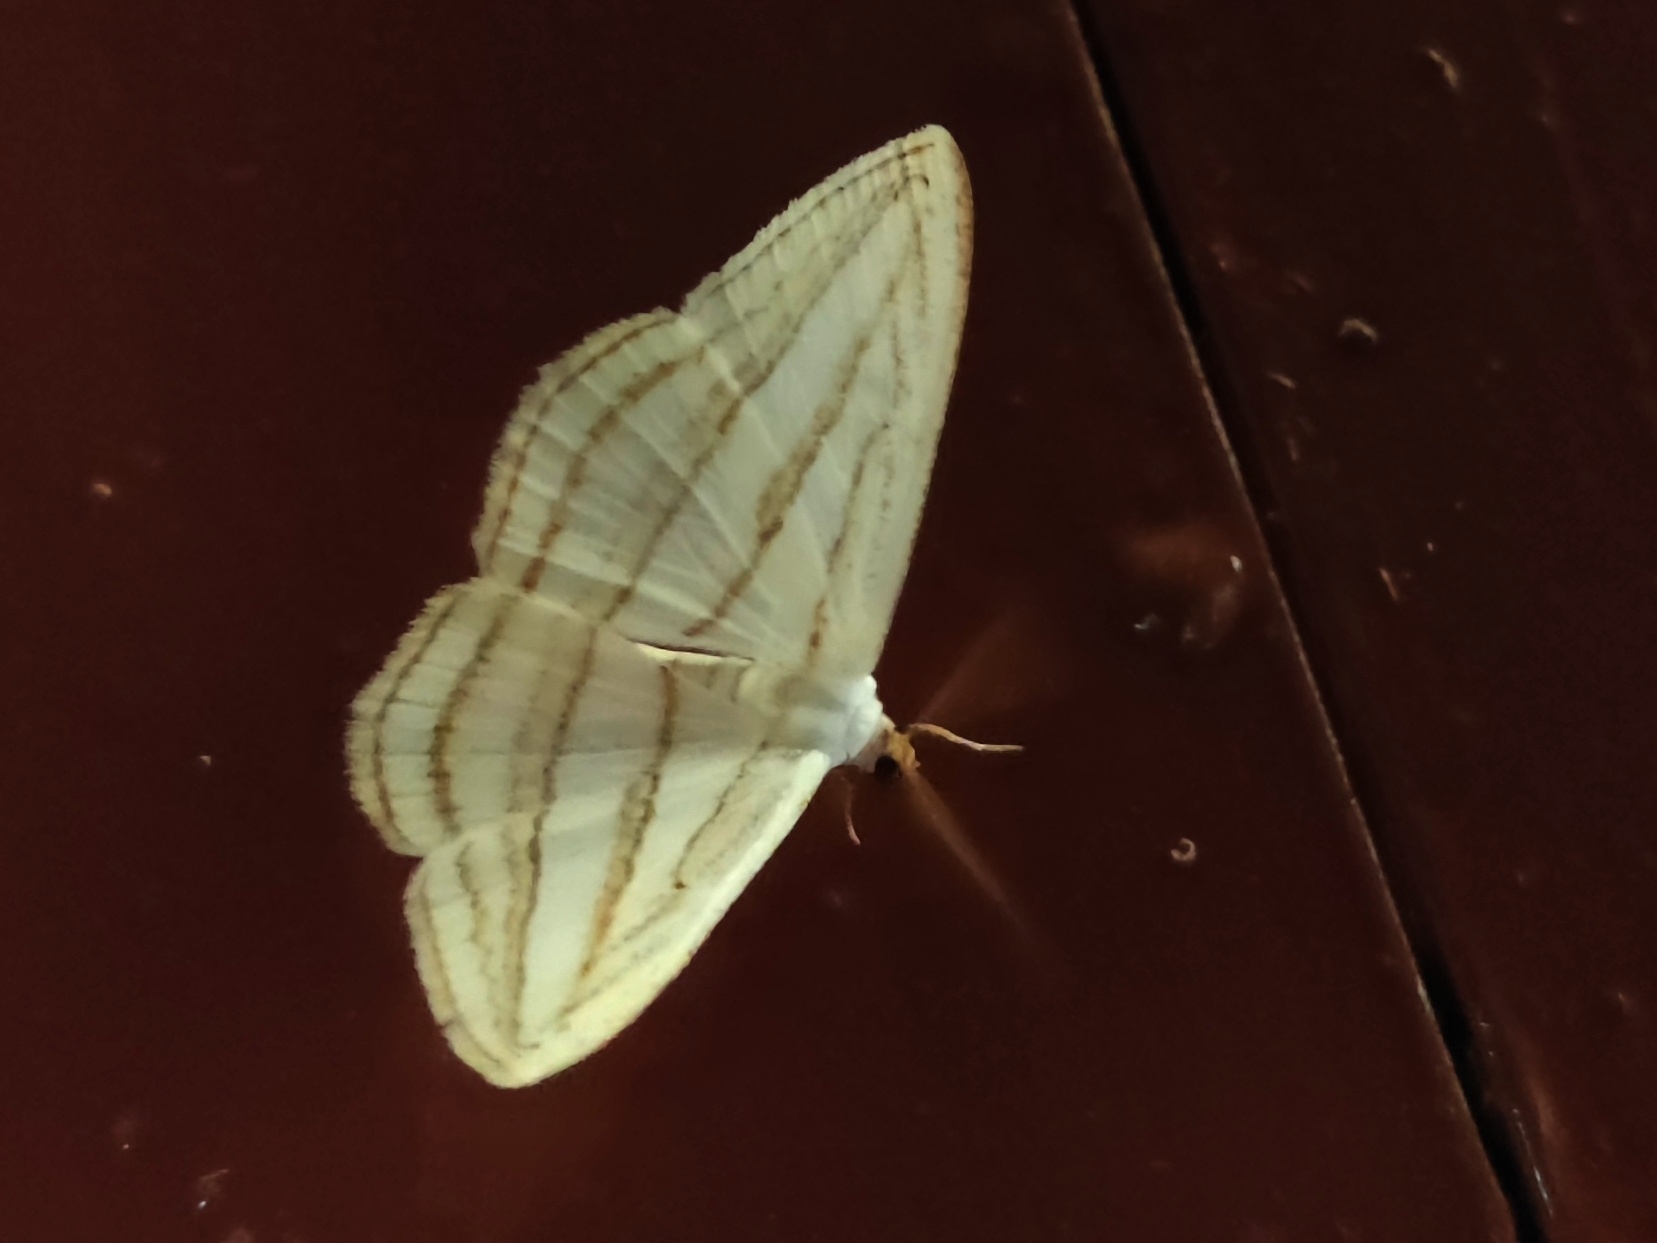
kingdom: Animalia
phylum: Arthropoda
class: Insecta
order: Lepidoptera
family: Geometridae
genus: Orthocabera
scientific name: Orthocabera sericea
